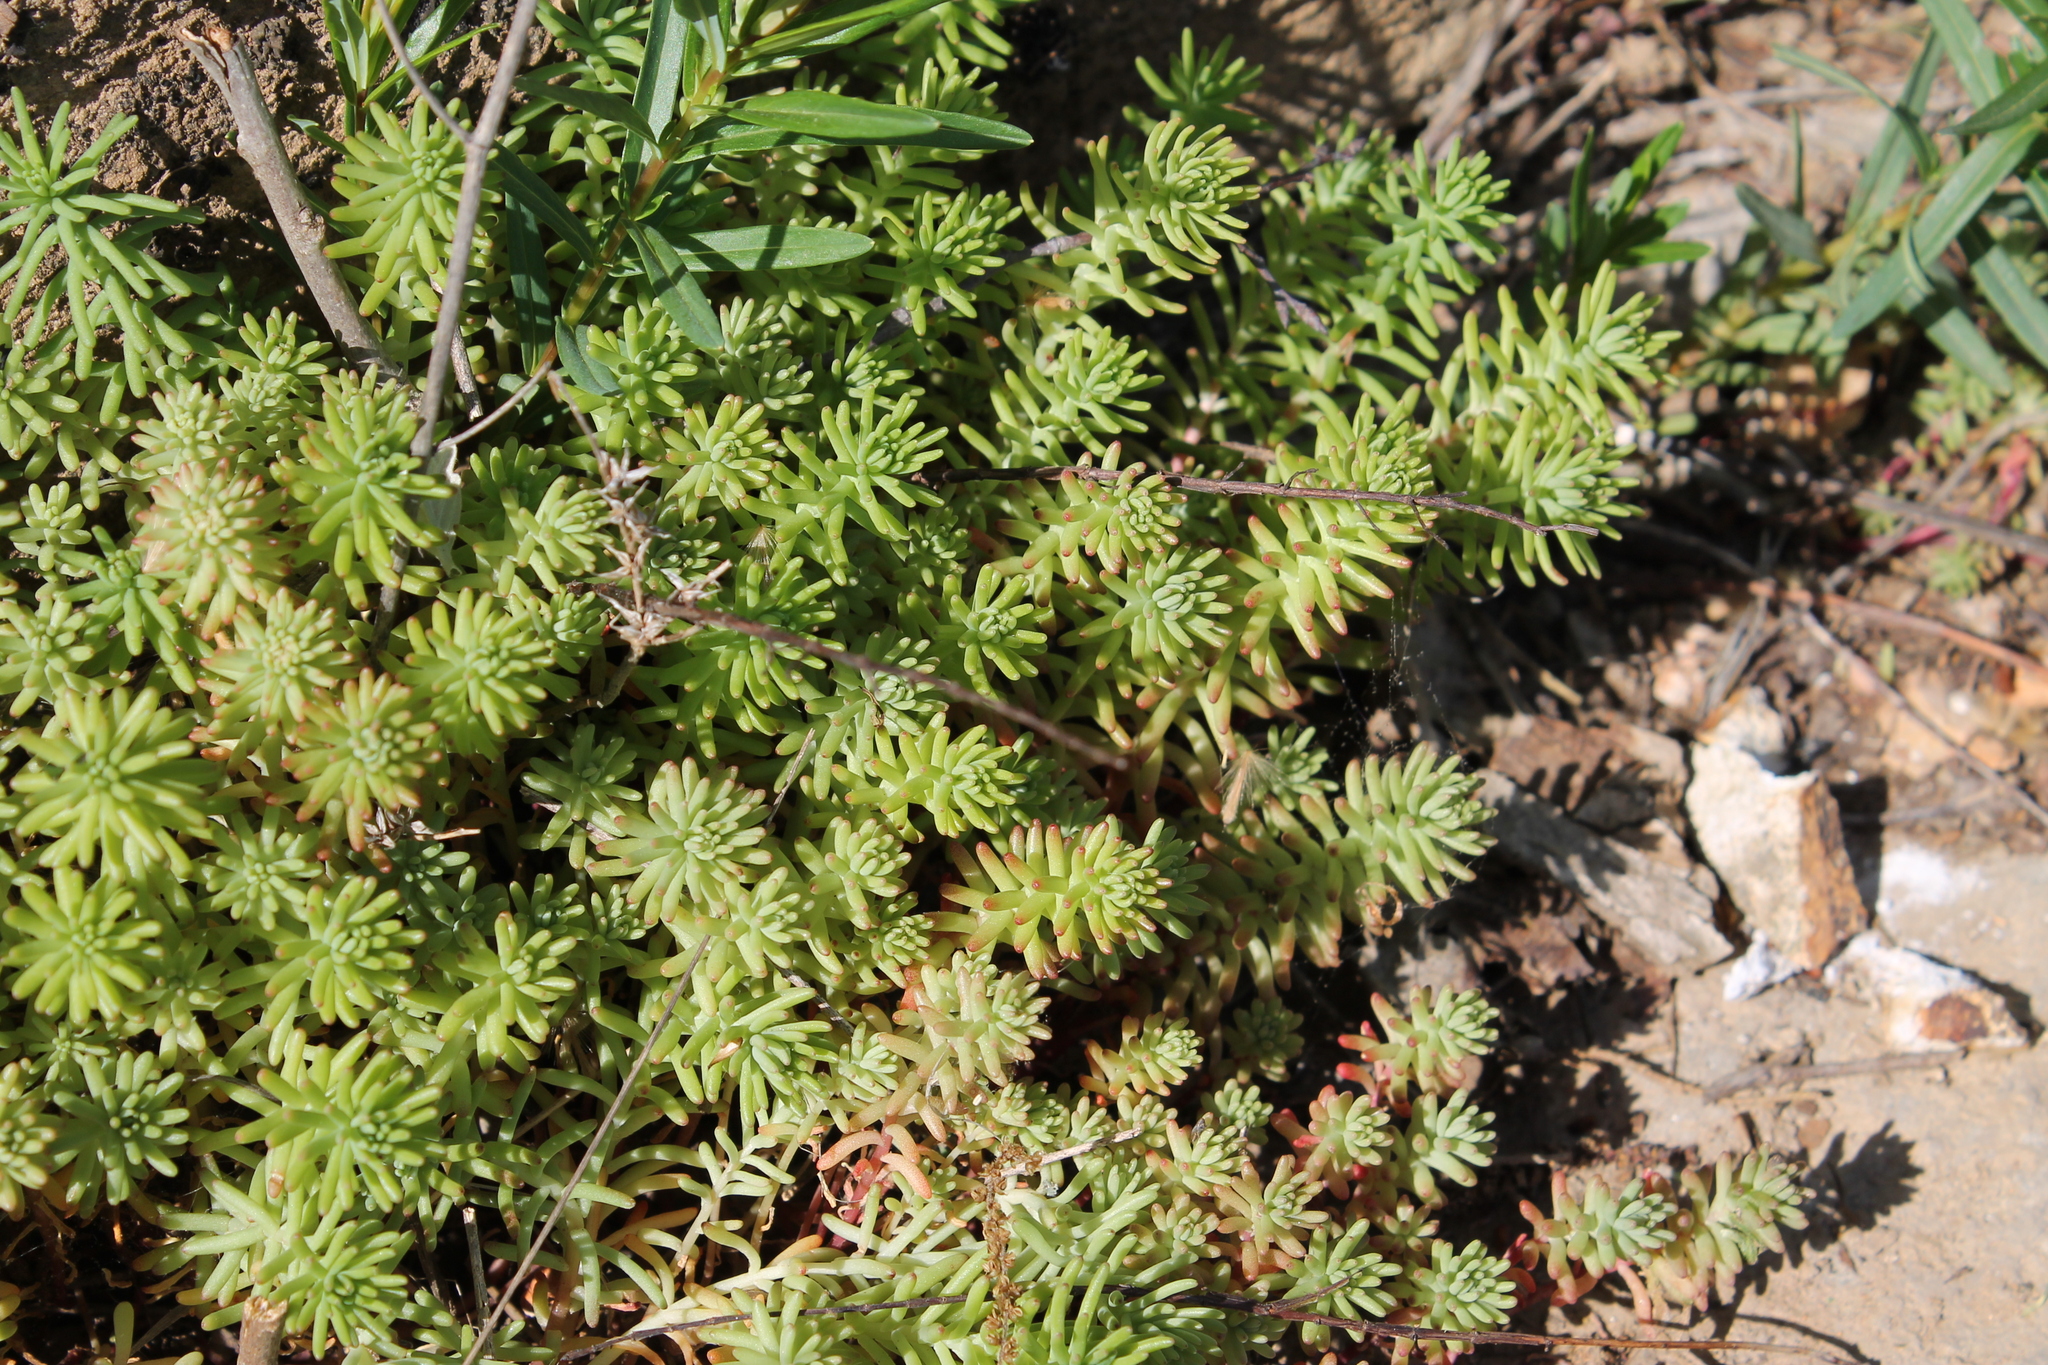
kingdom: Plantae
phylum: Tracheophyta
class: Magnoliopsida
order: Saxifragales
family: Crassulaceae
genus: Sedum
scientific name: Sedum pulchellum
